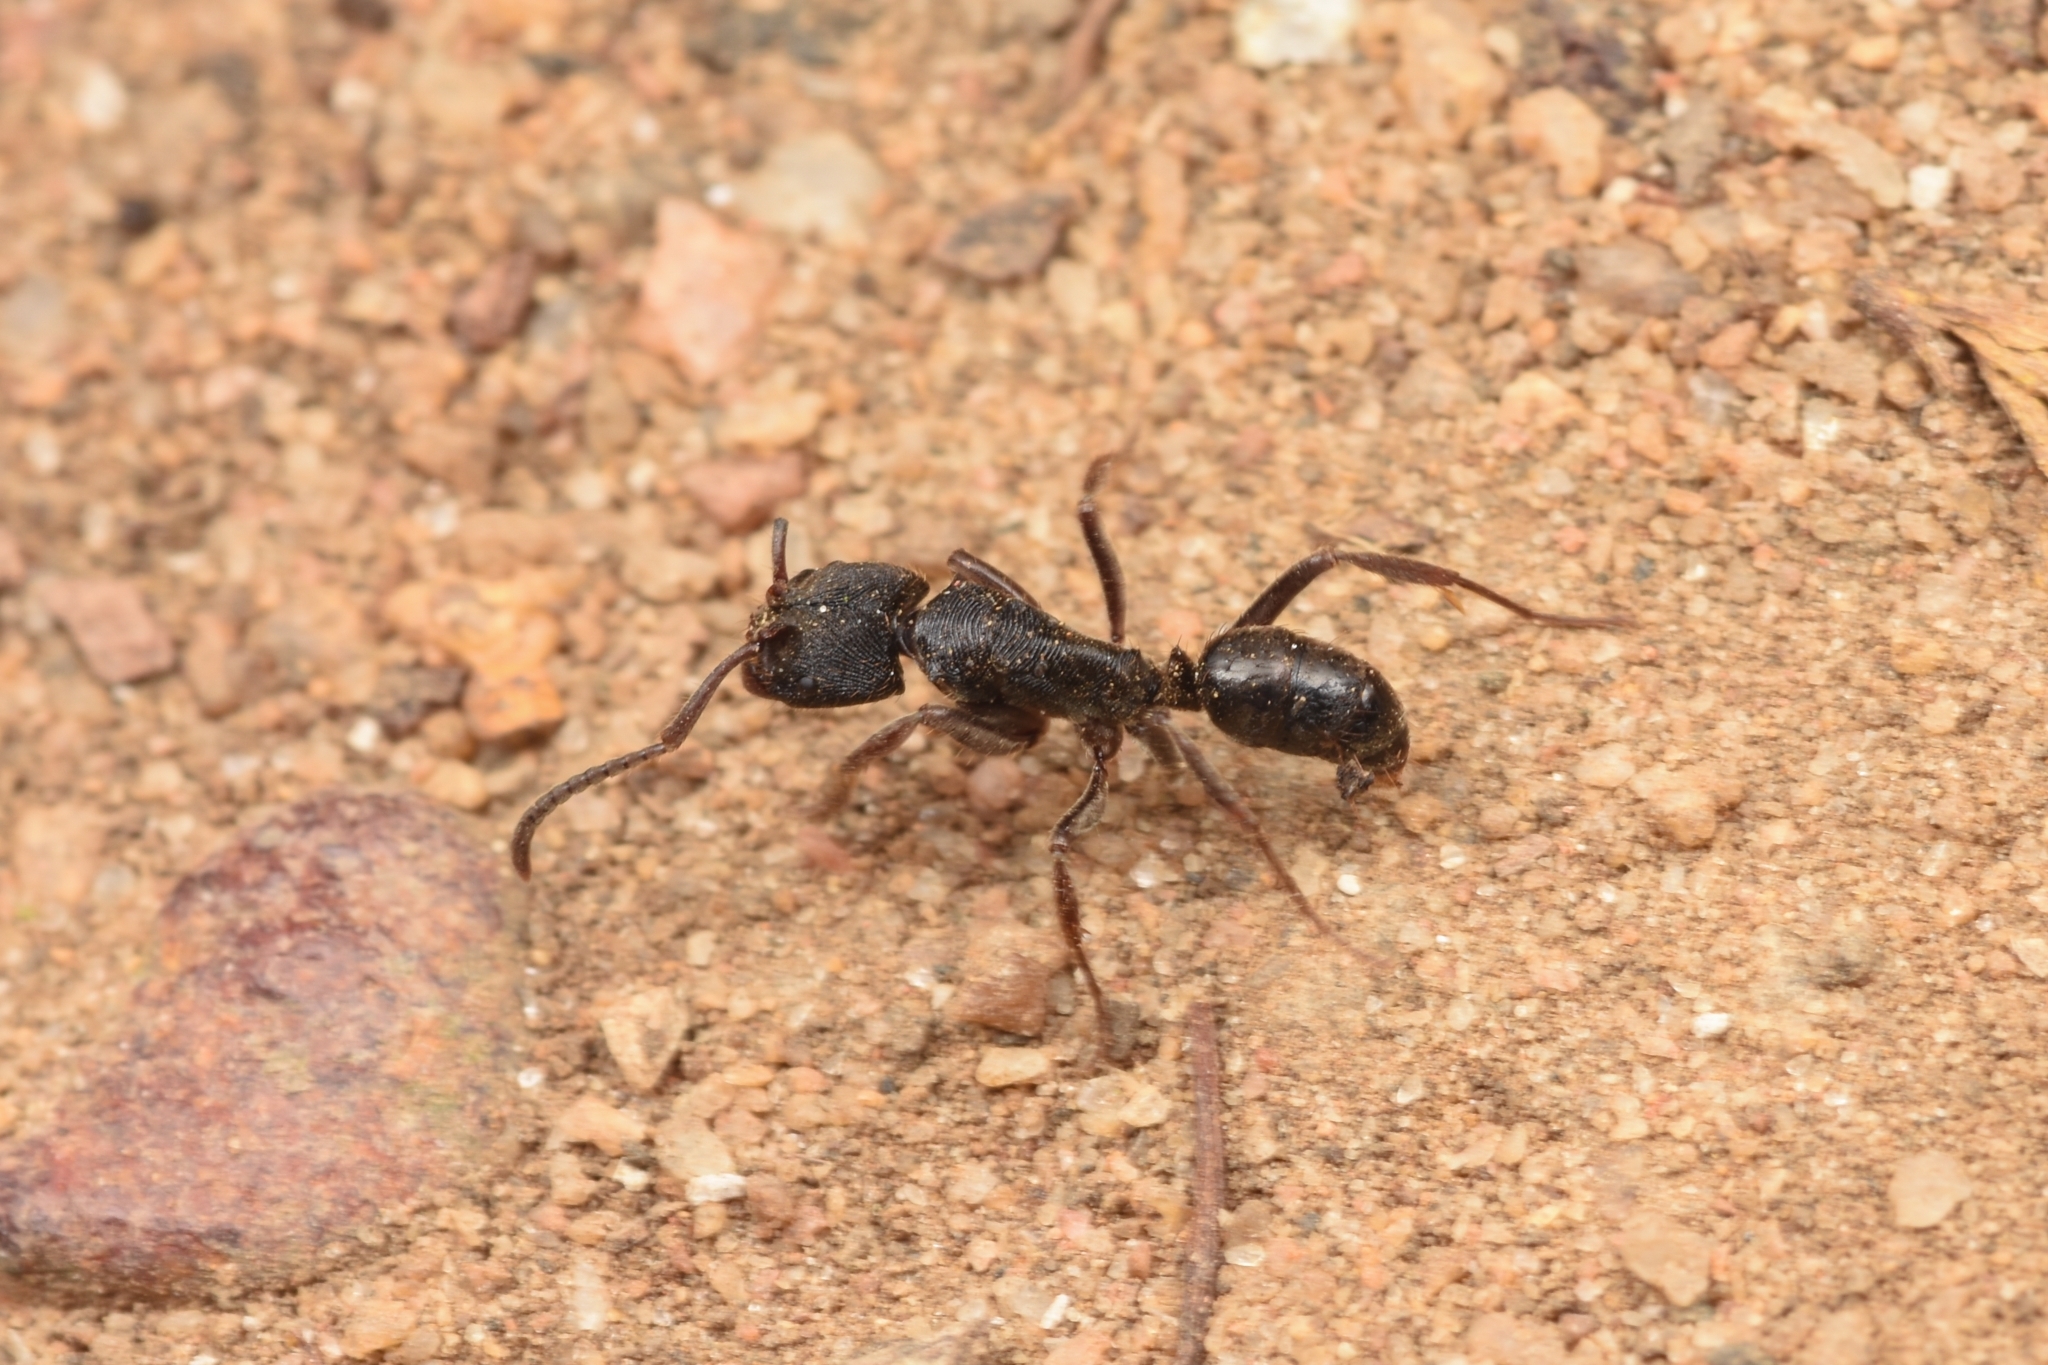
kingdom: Animalia
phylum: Arthropoda
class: Insecta
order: Hymenoptera
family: Formicidae
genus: Odontoponera
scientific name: Odontoponera denticulata
